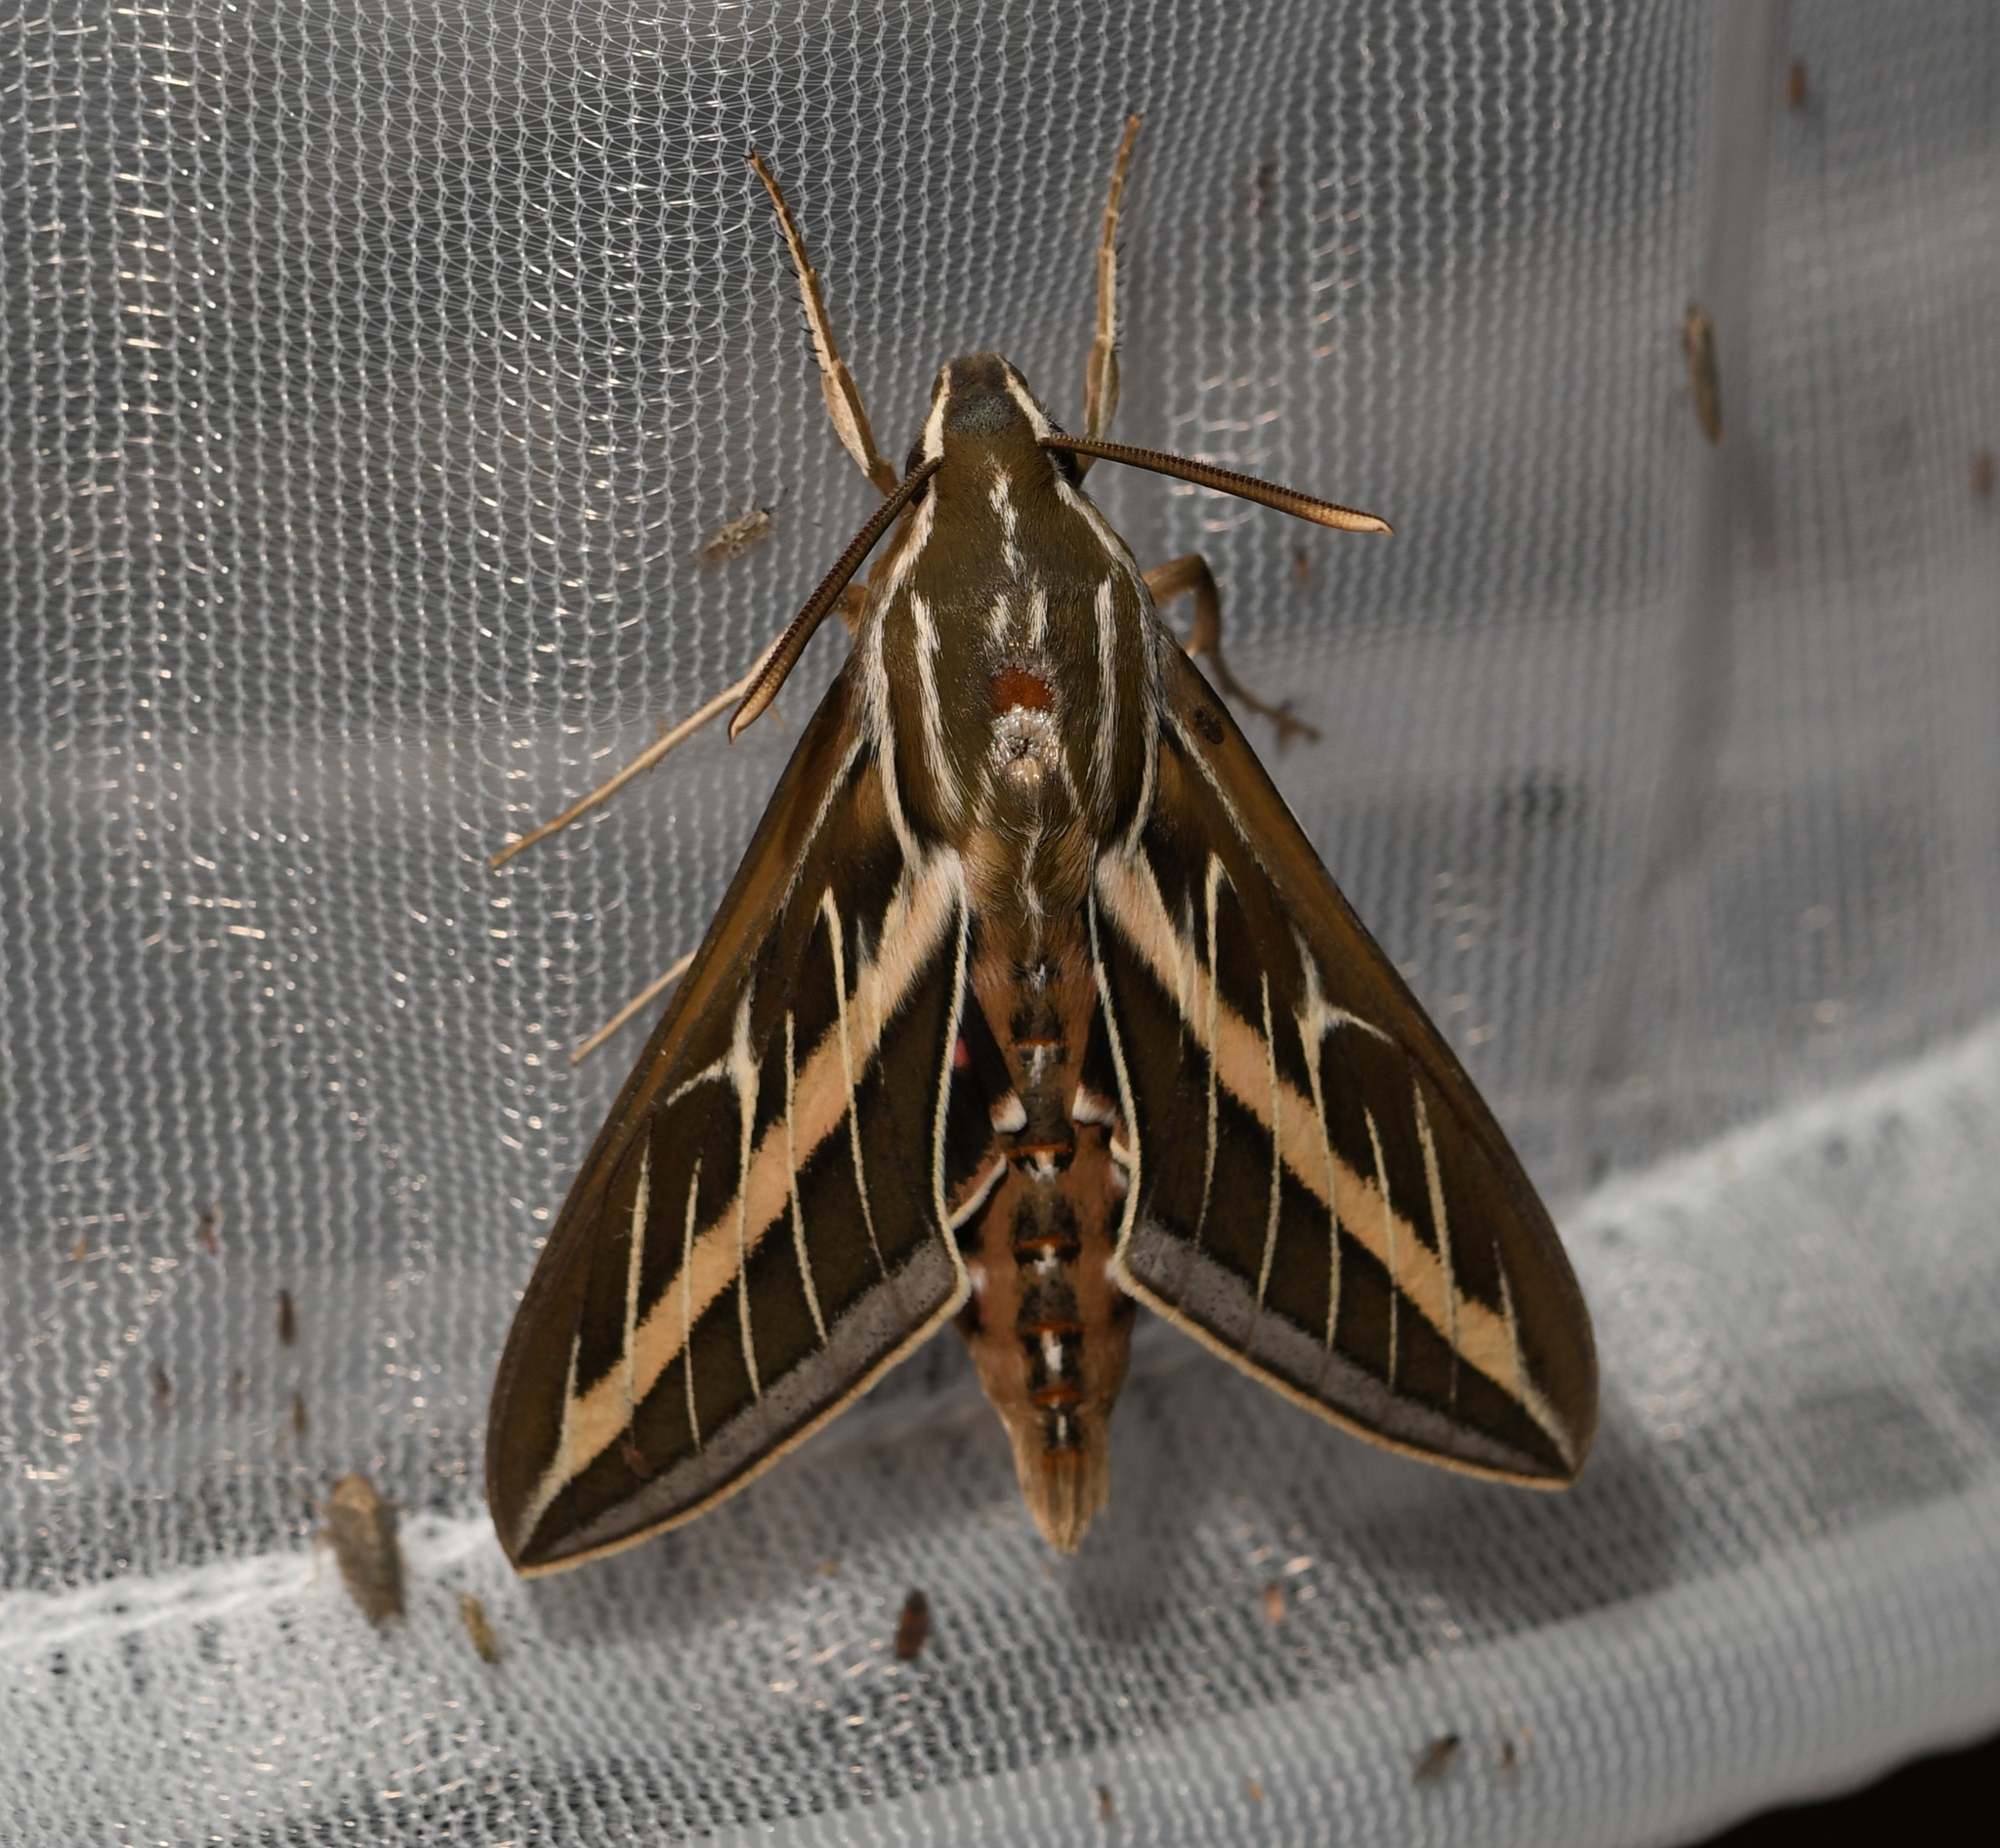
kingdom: Animalia
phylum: Arthropoda
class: Insecta
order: Lepidoptera
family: Sphingidae
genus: Hyles
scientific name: Hyles lineata
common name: White-lined sphinx
